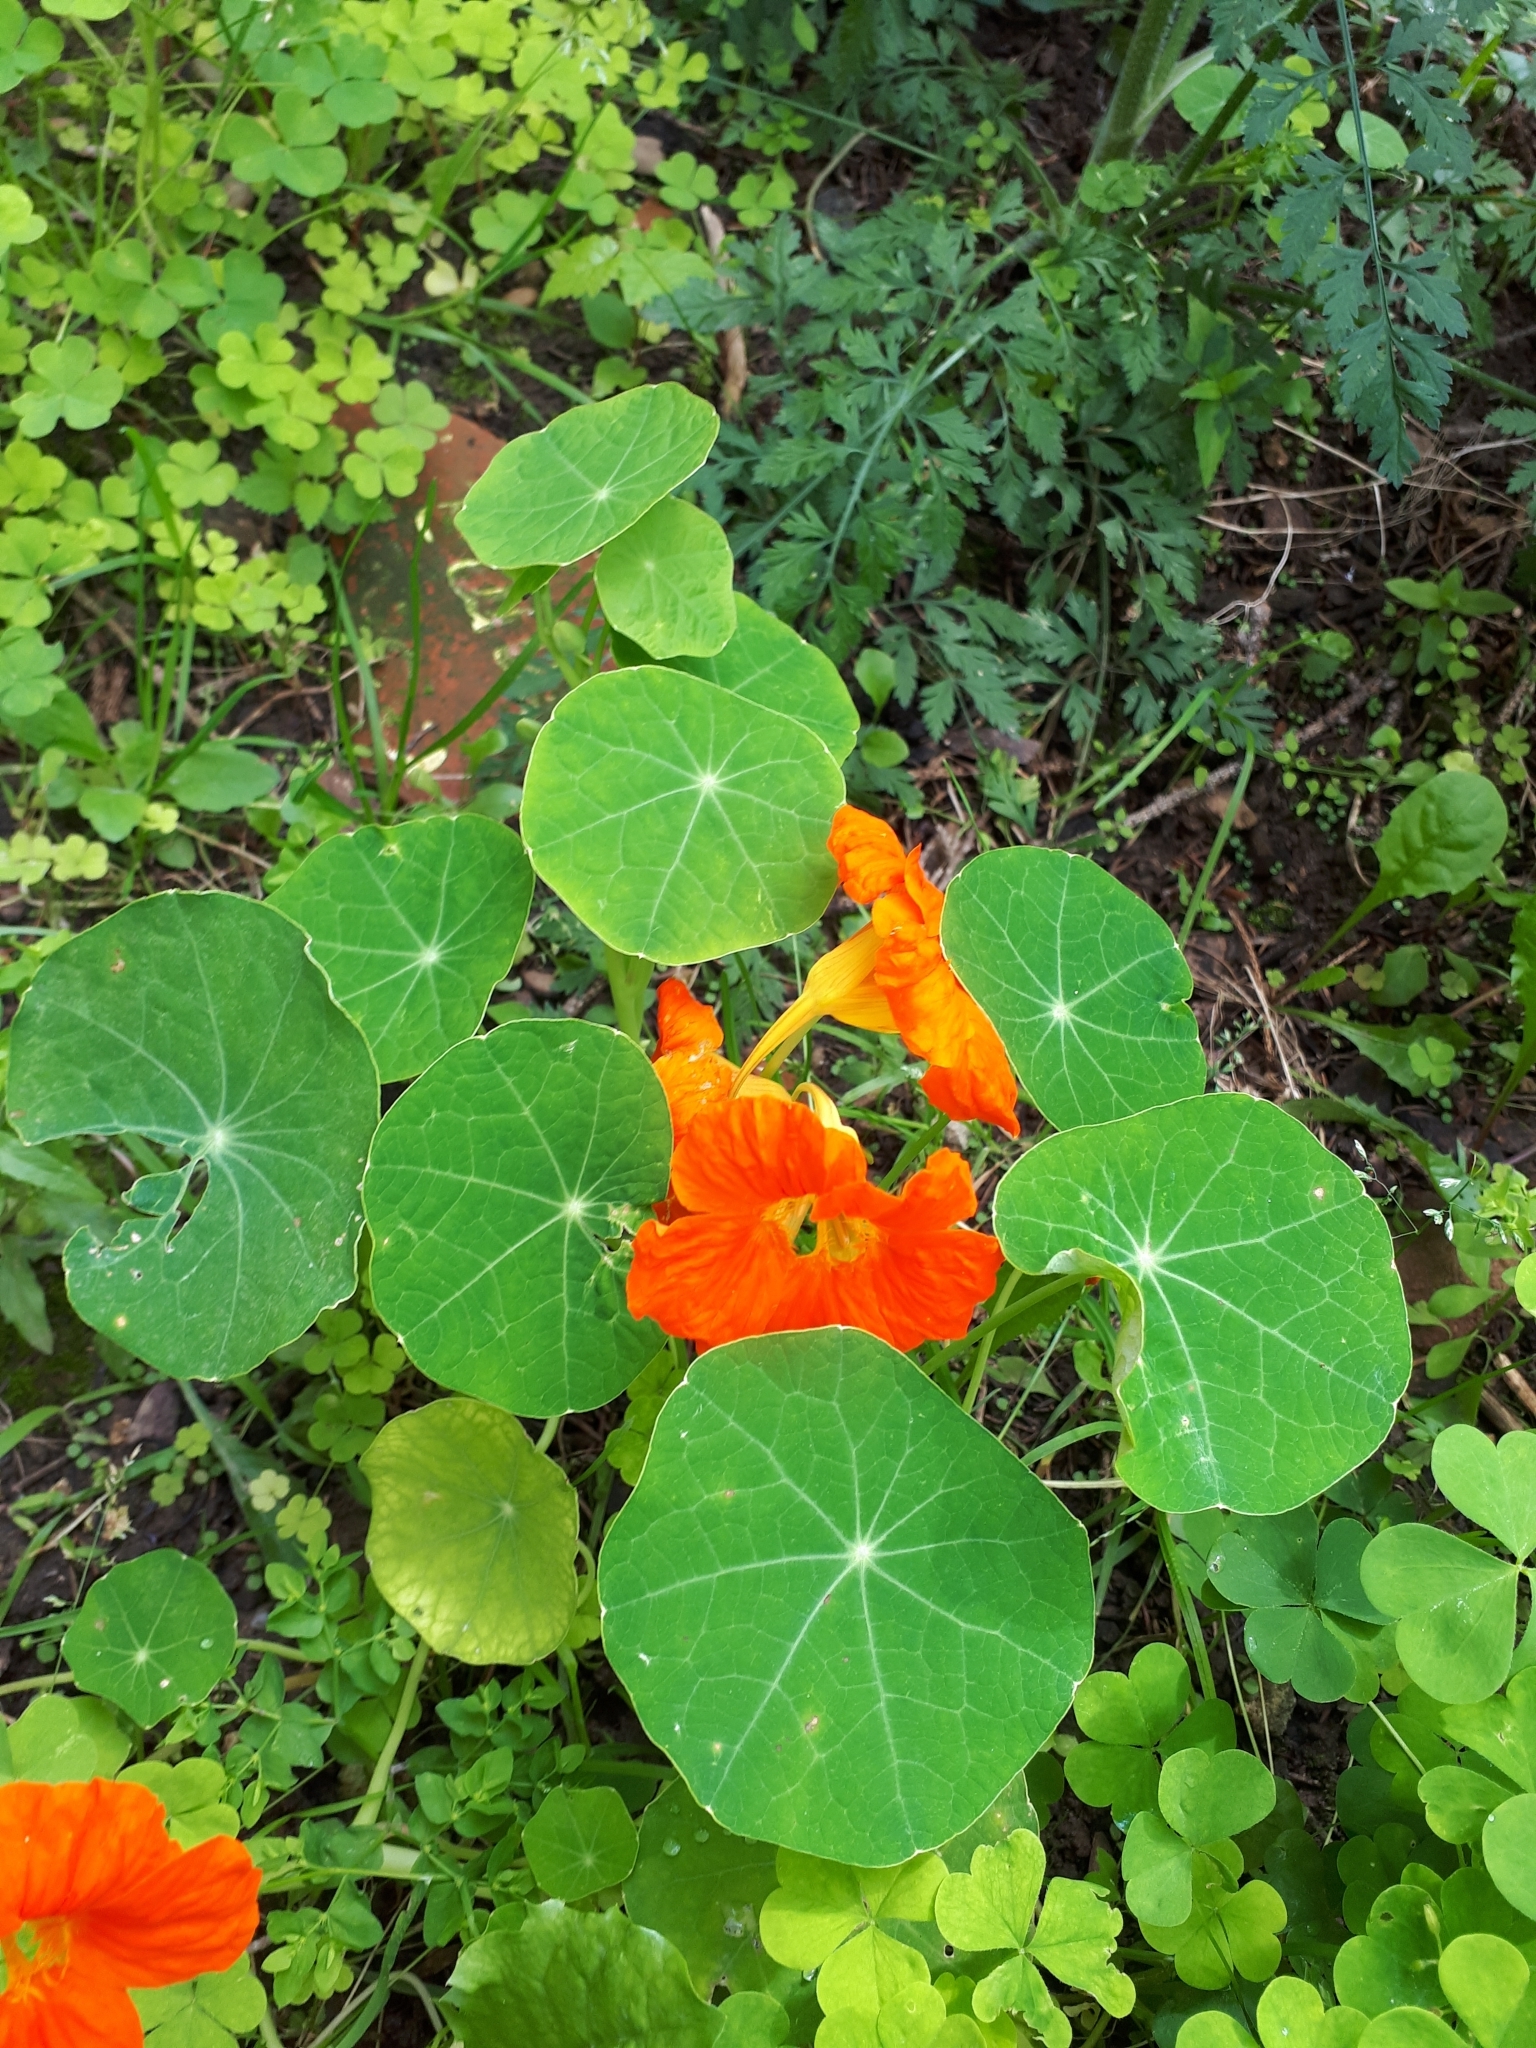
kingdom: Plantae
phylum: Tracheophyta
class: Magnoliopsida
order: Brassicales
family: Tropaeolaceae
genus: Tropaeolum
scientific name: Tropaeolum majus
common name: Nasturtium
